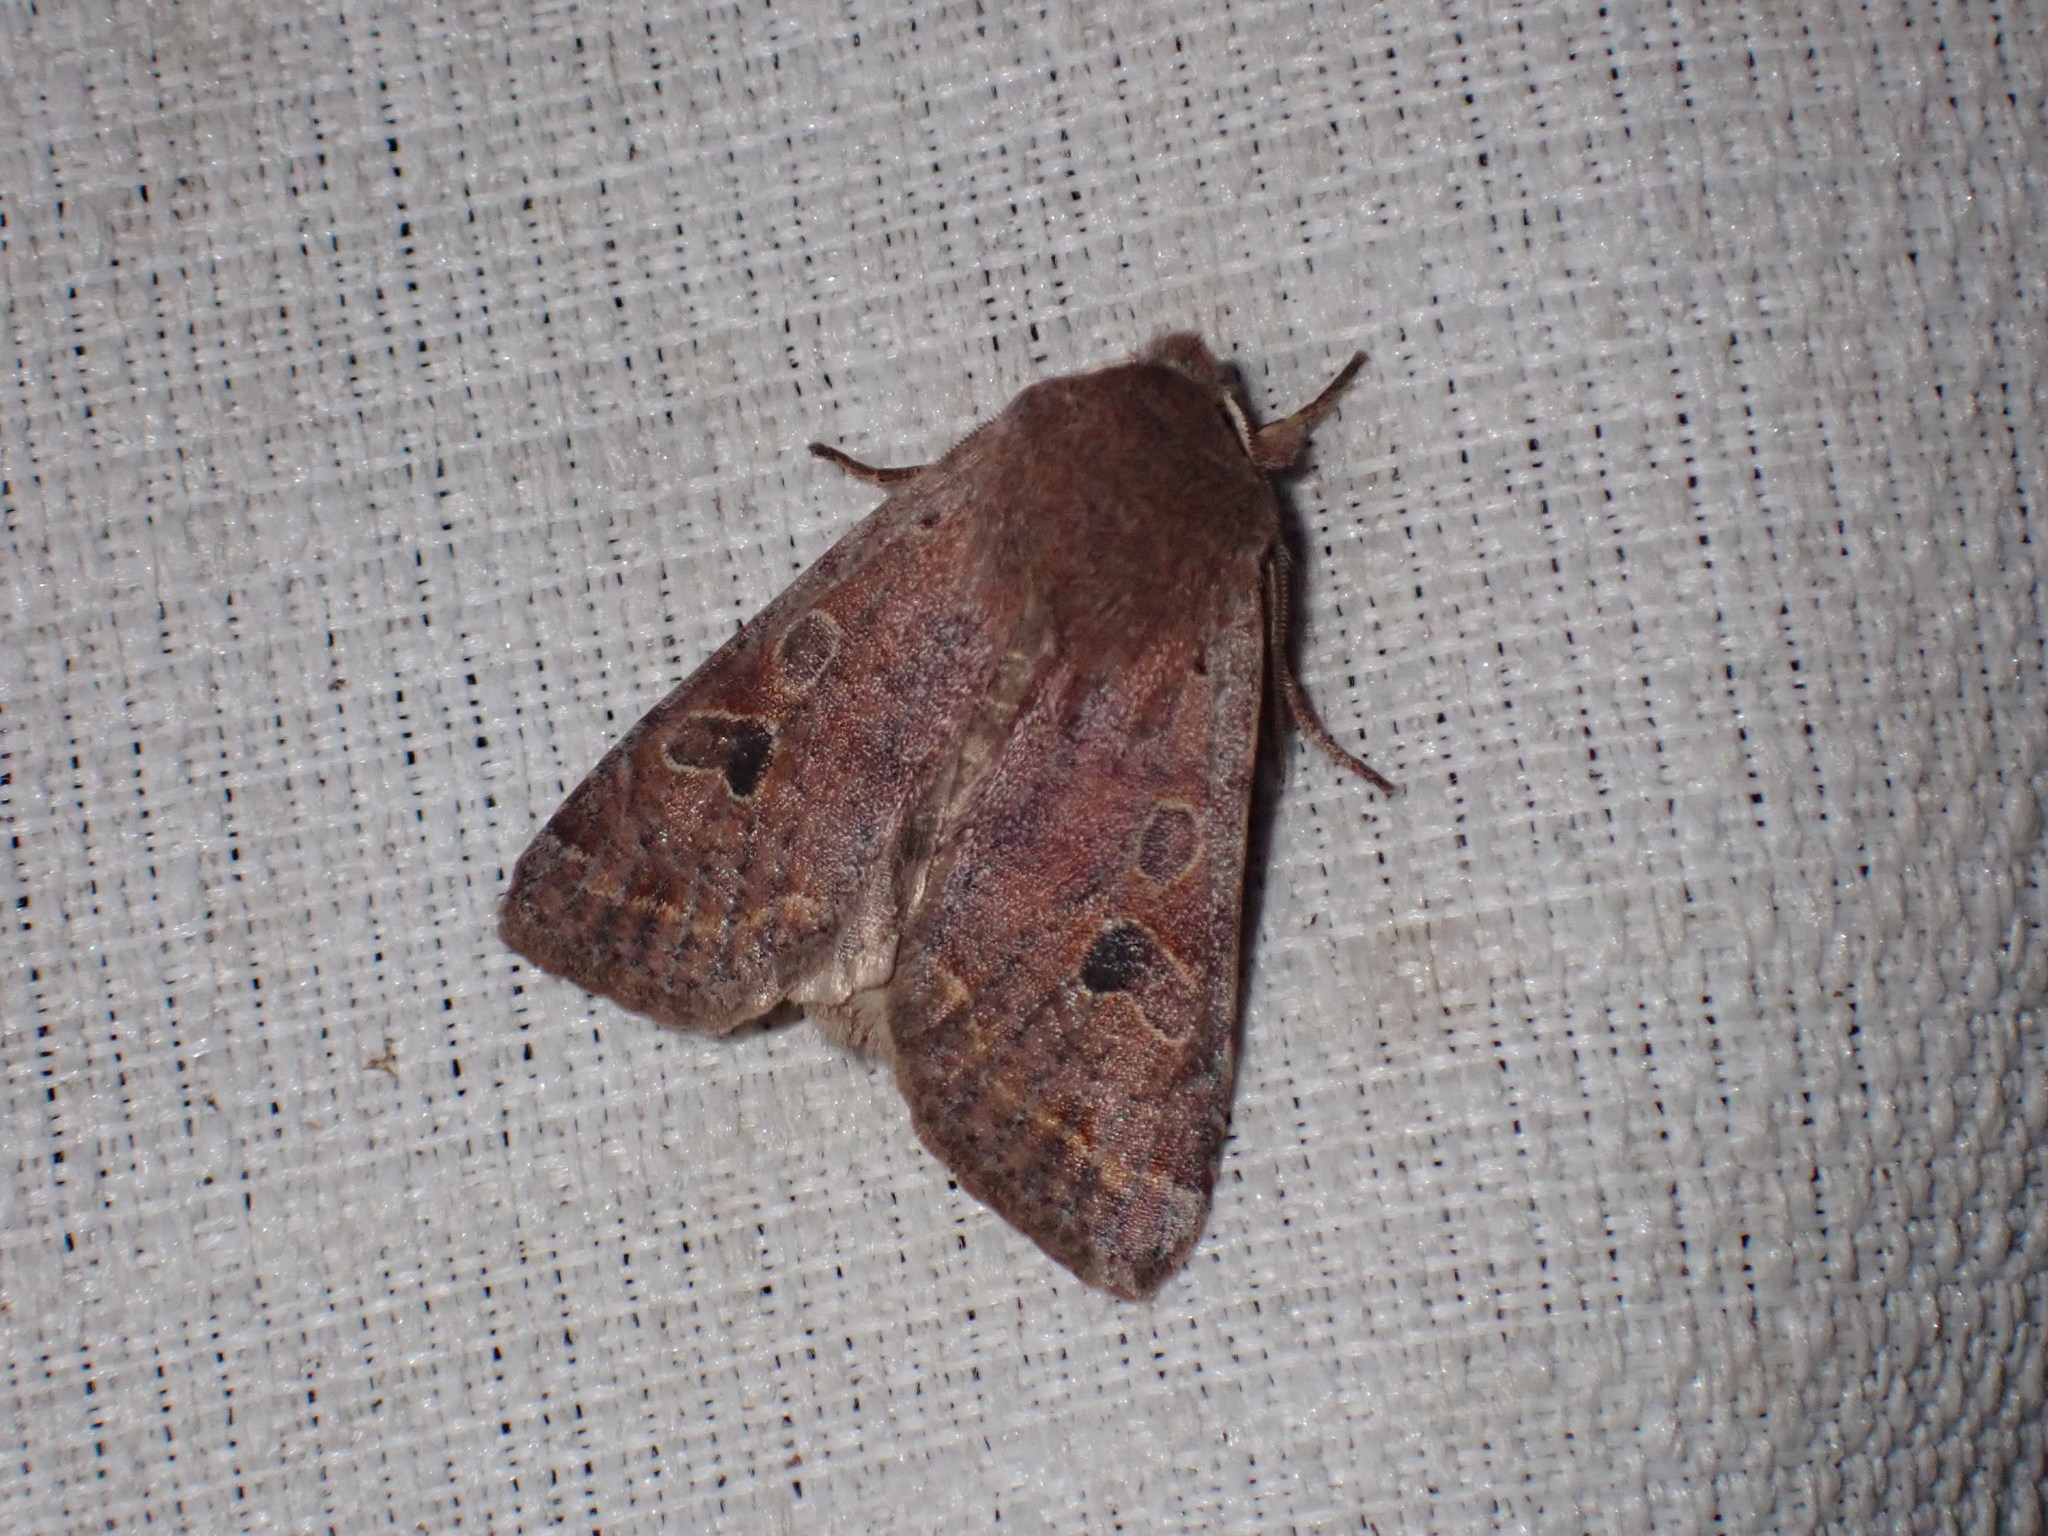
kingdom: Animalia
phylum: Arthropoda
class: Insecta
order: Lepidoptera
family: Noctuidae
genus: Orthosia
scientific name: Orthosia hibisci
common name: Green fruitworm
